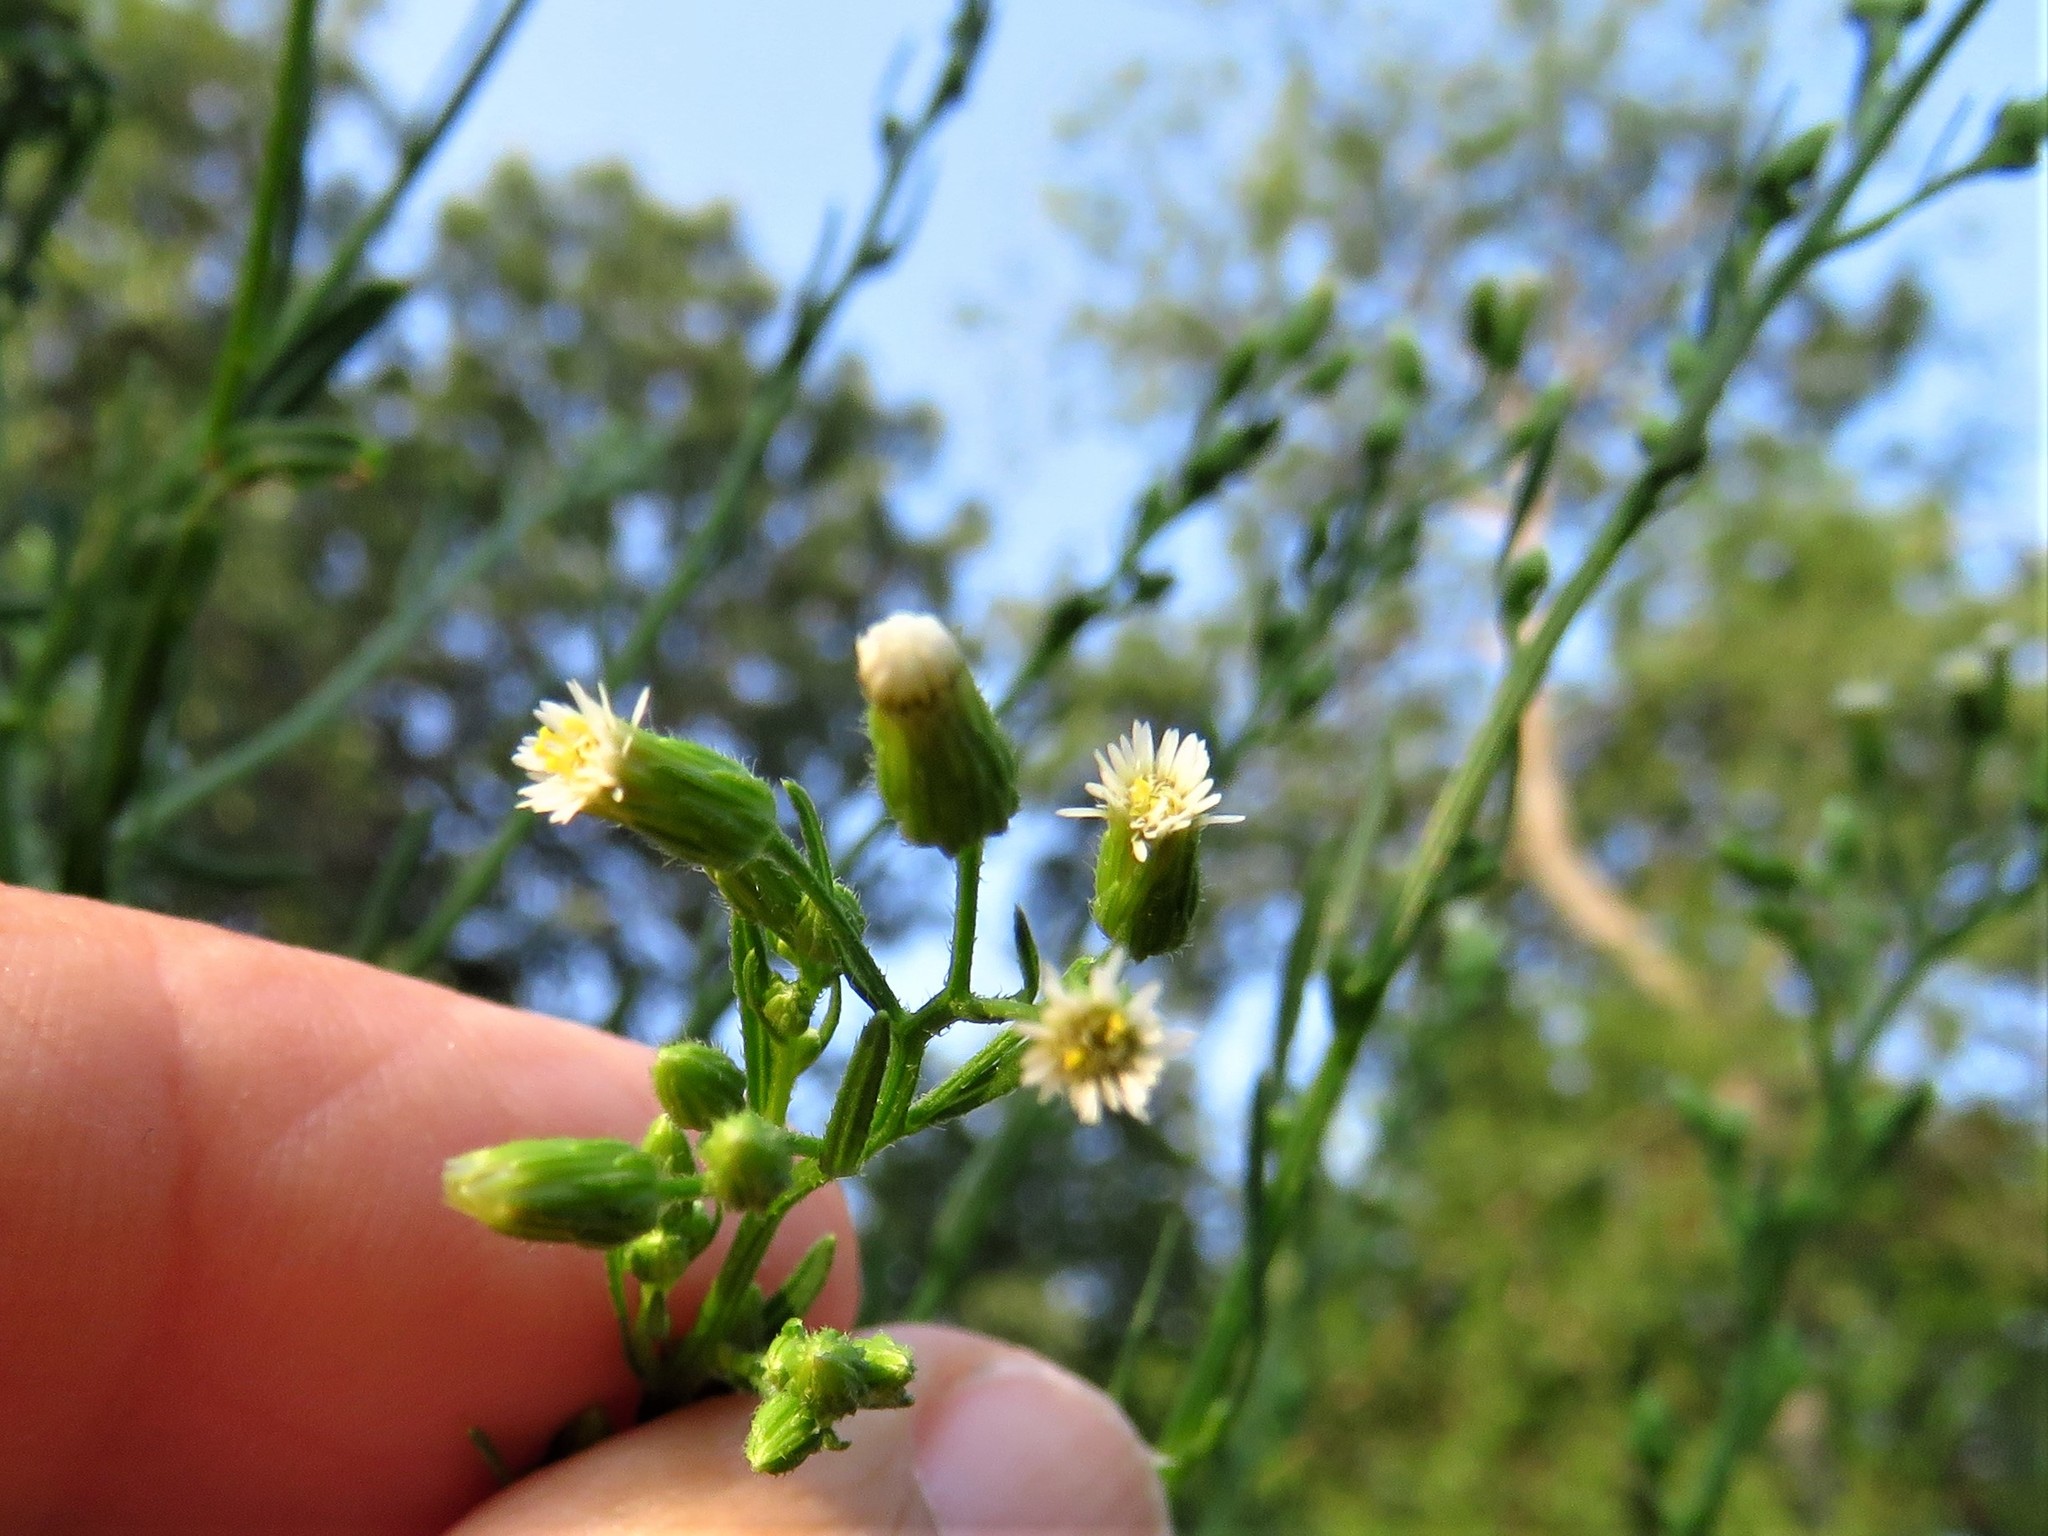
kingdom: Plantae
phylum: Tracheophyta
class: Magnoliopsida
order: Asterales
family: Asteraceae
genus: Erigeron
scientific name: Erigeron canadensis
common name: Canadian fleabane
